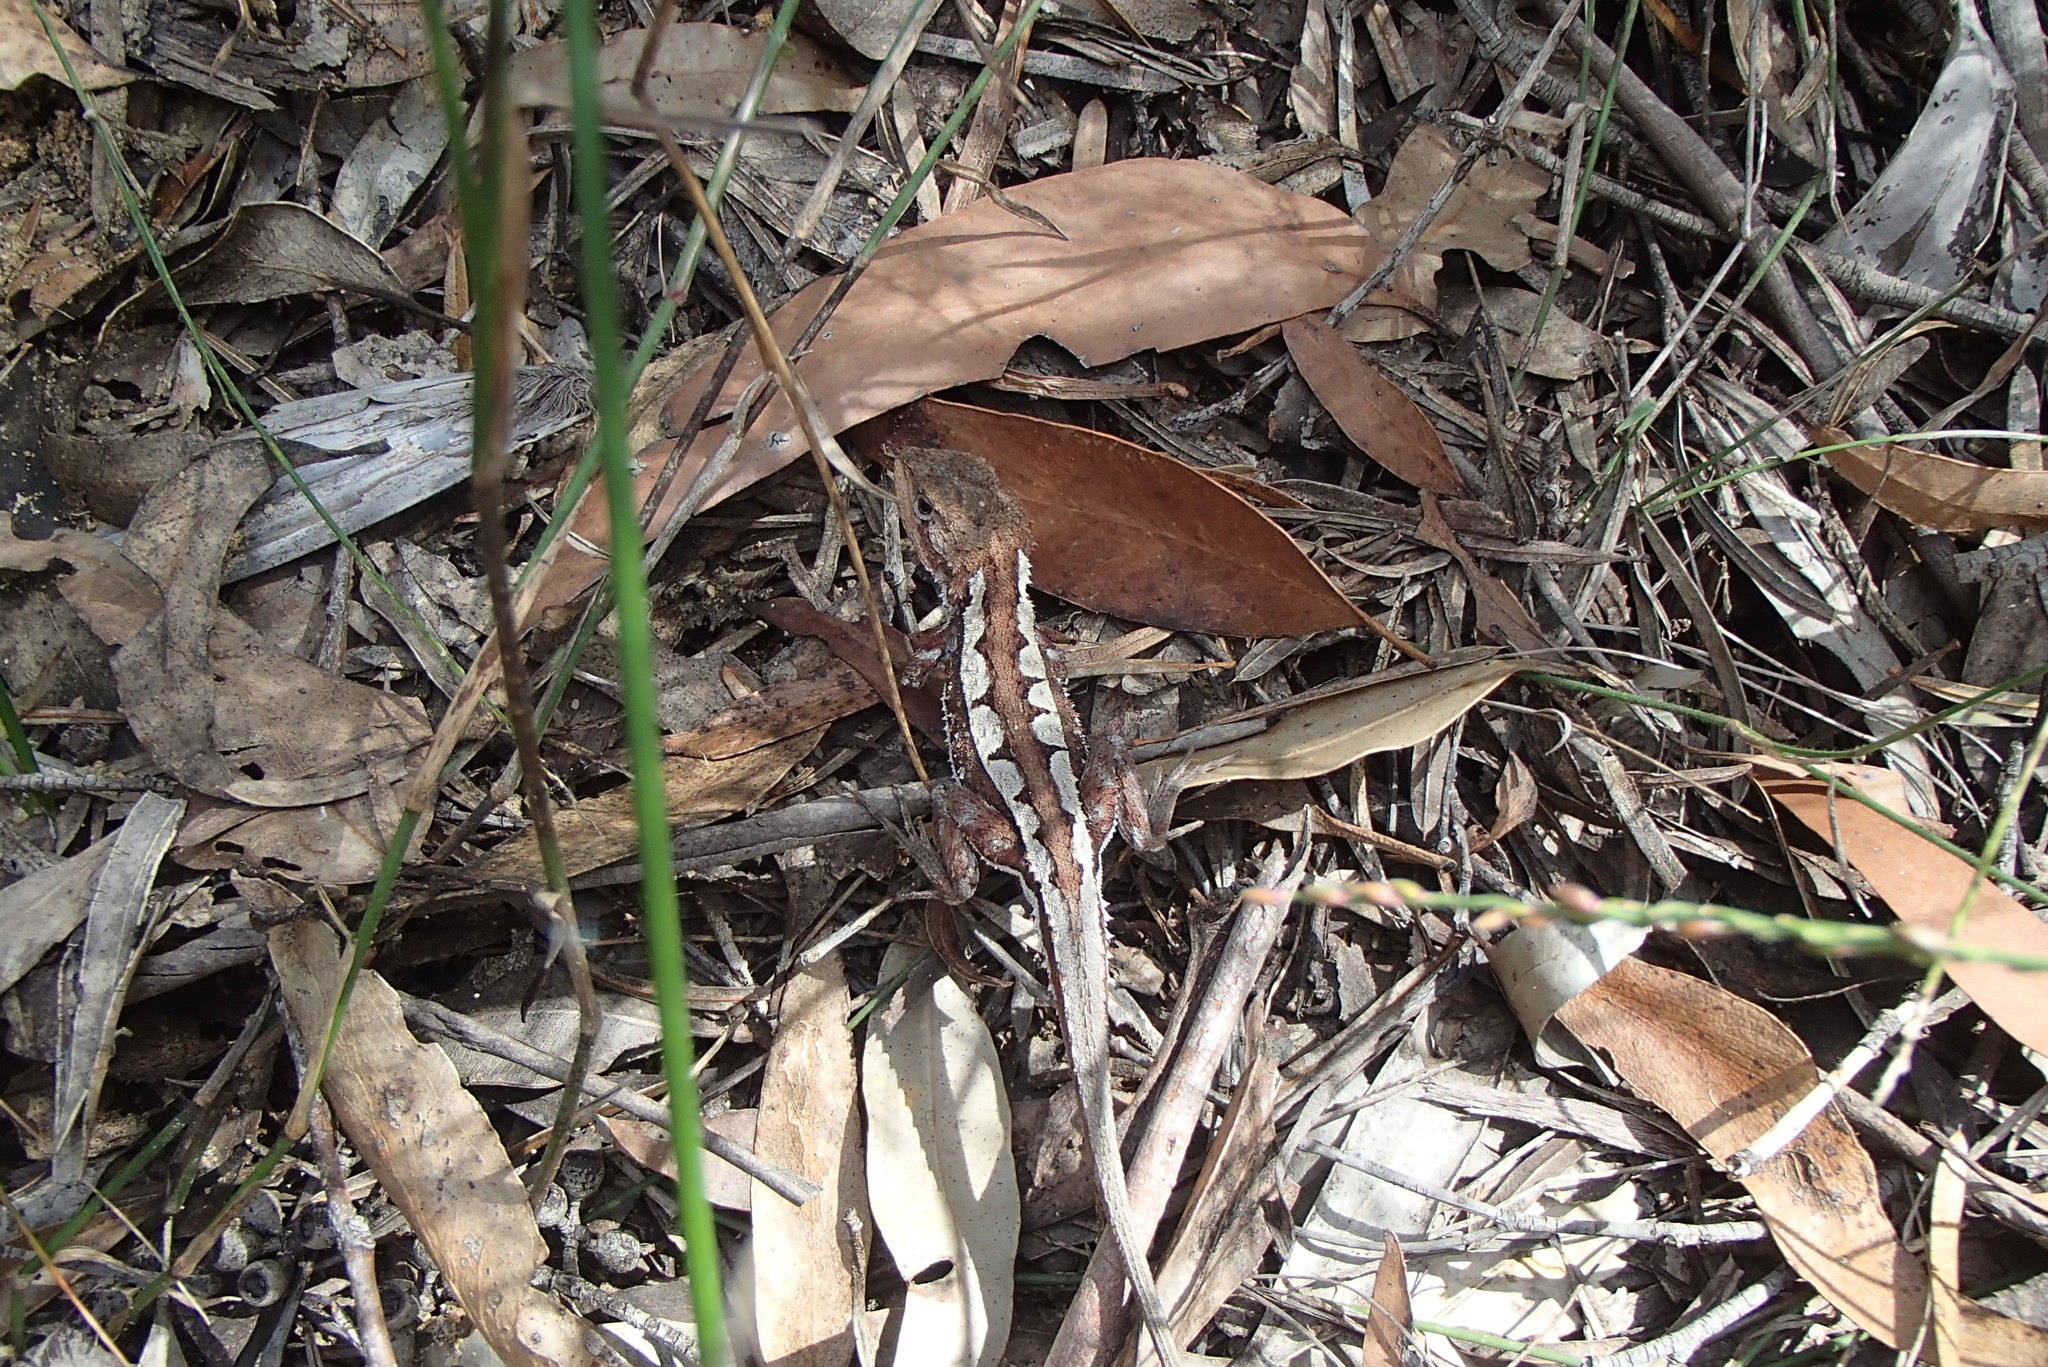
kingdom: Animalia
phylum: Chordata
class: Squamata
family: Agamidae
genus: Rankinia
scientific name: Rankinia diemensis
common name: Mountain dragon
